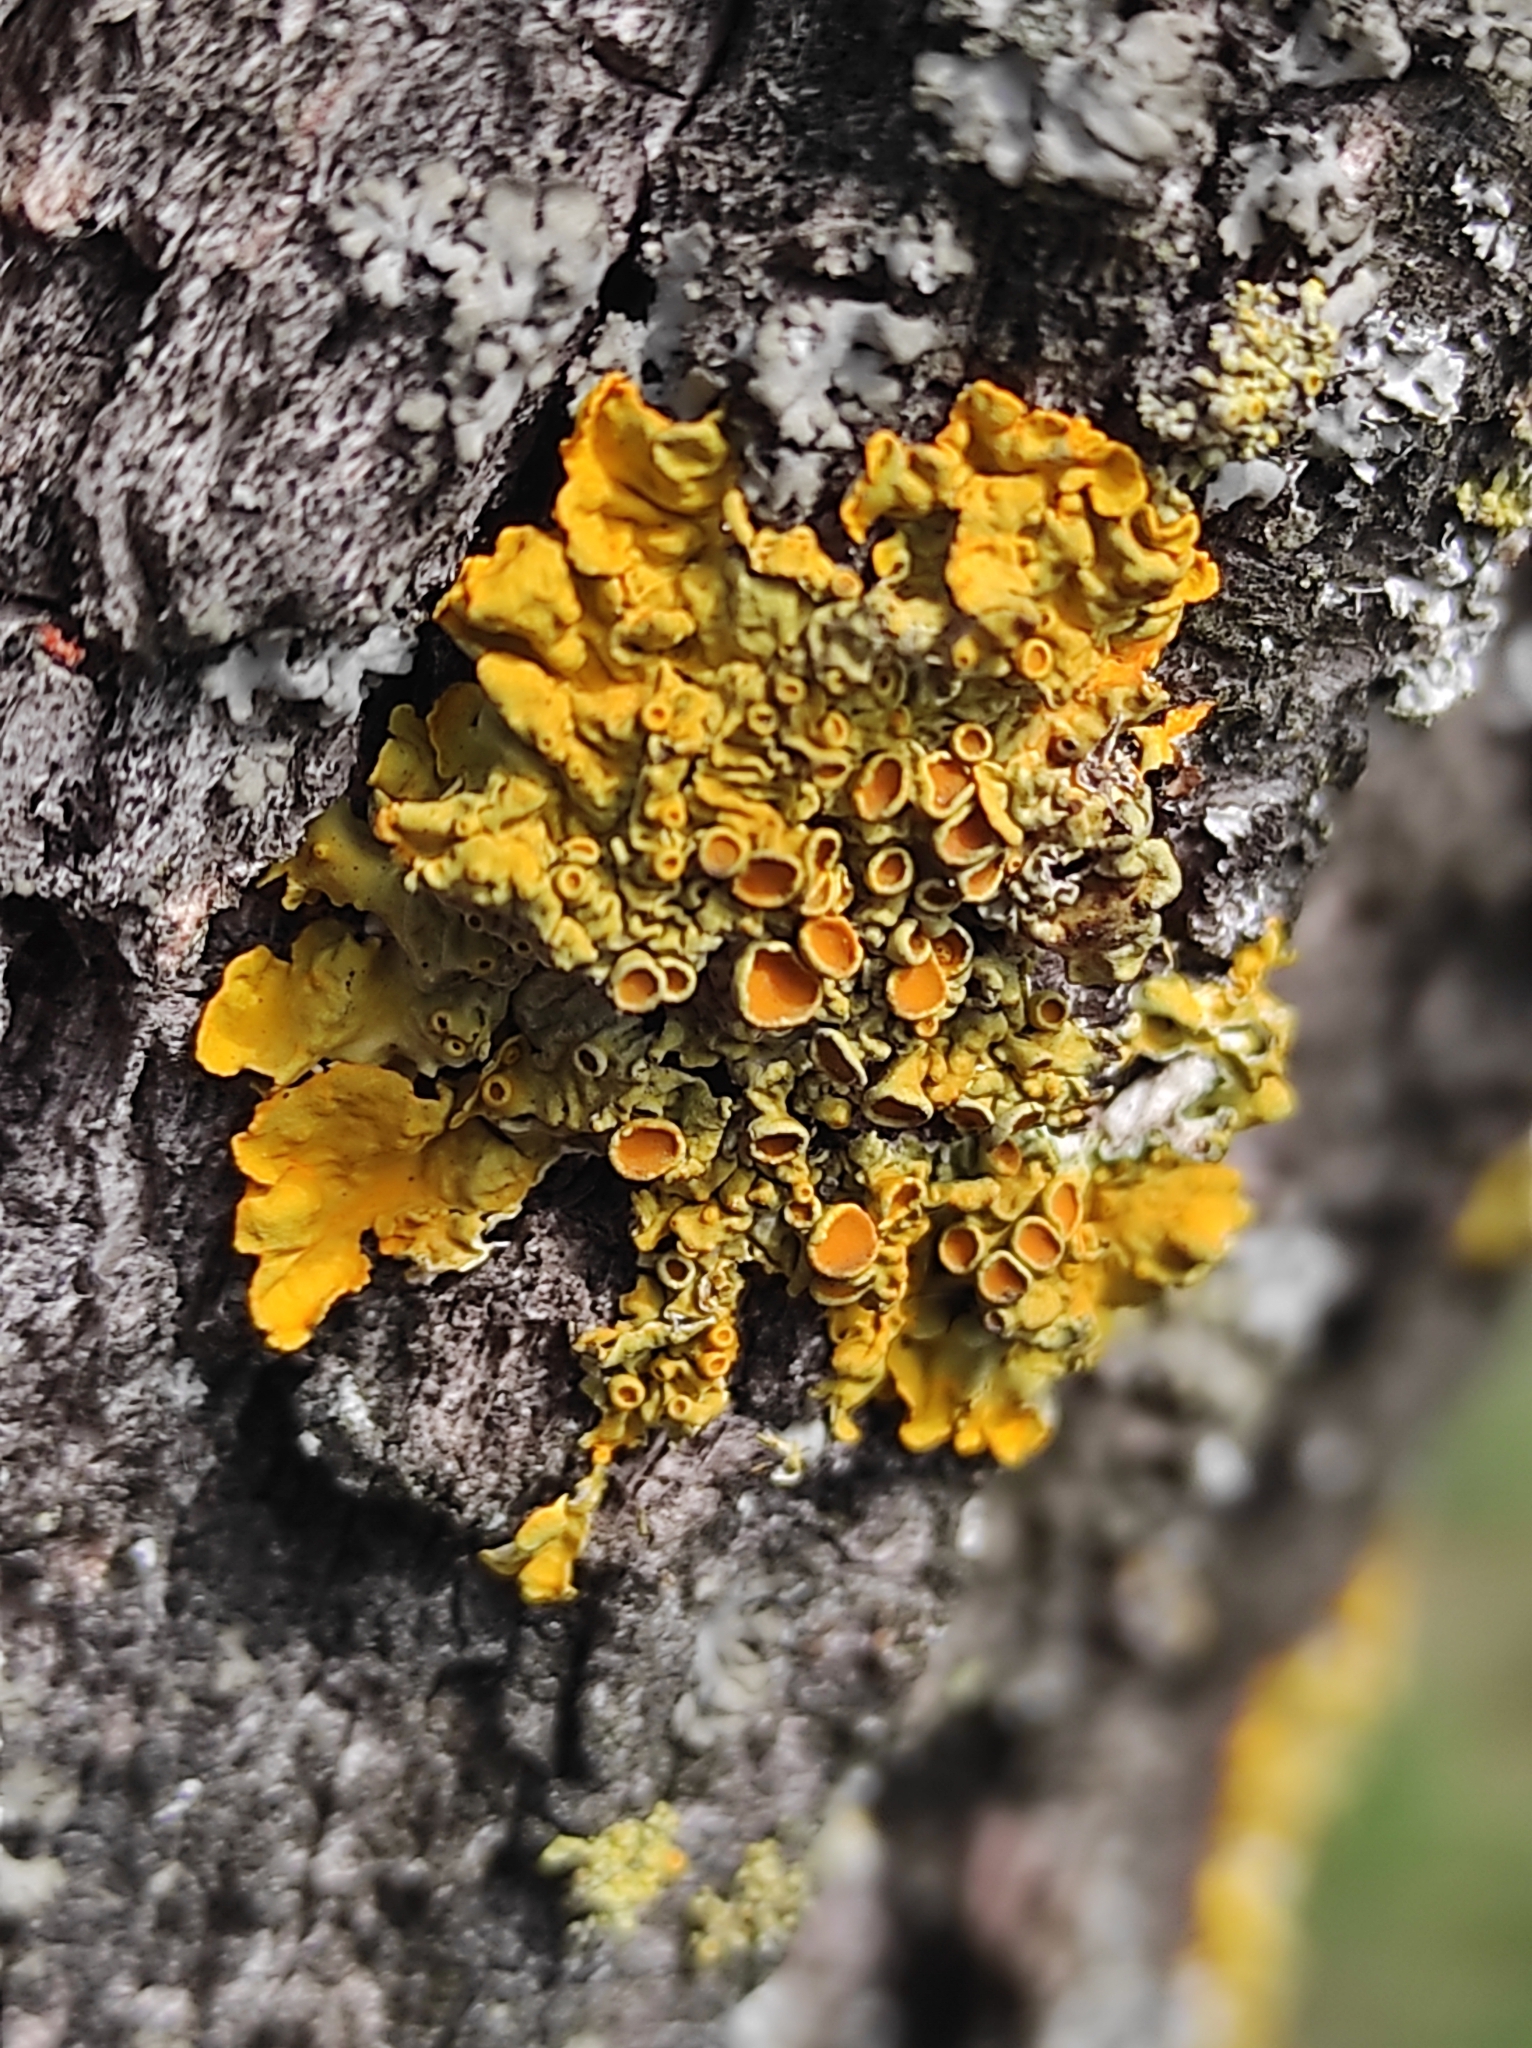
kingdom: Fungi
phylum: Ascomycota
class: Lecanoromycetes
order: Teloschistales
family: Teloschistaceae
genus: Xanthoria
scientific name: Xanthoria parietina
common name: Common orange lichen
